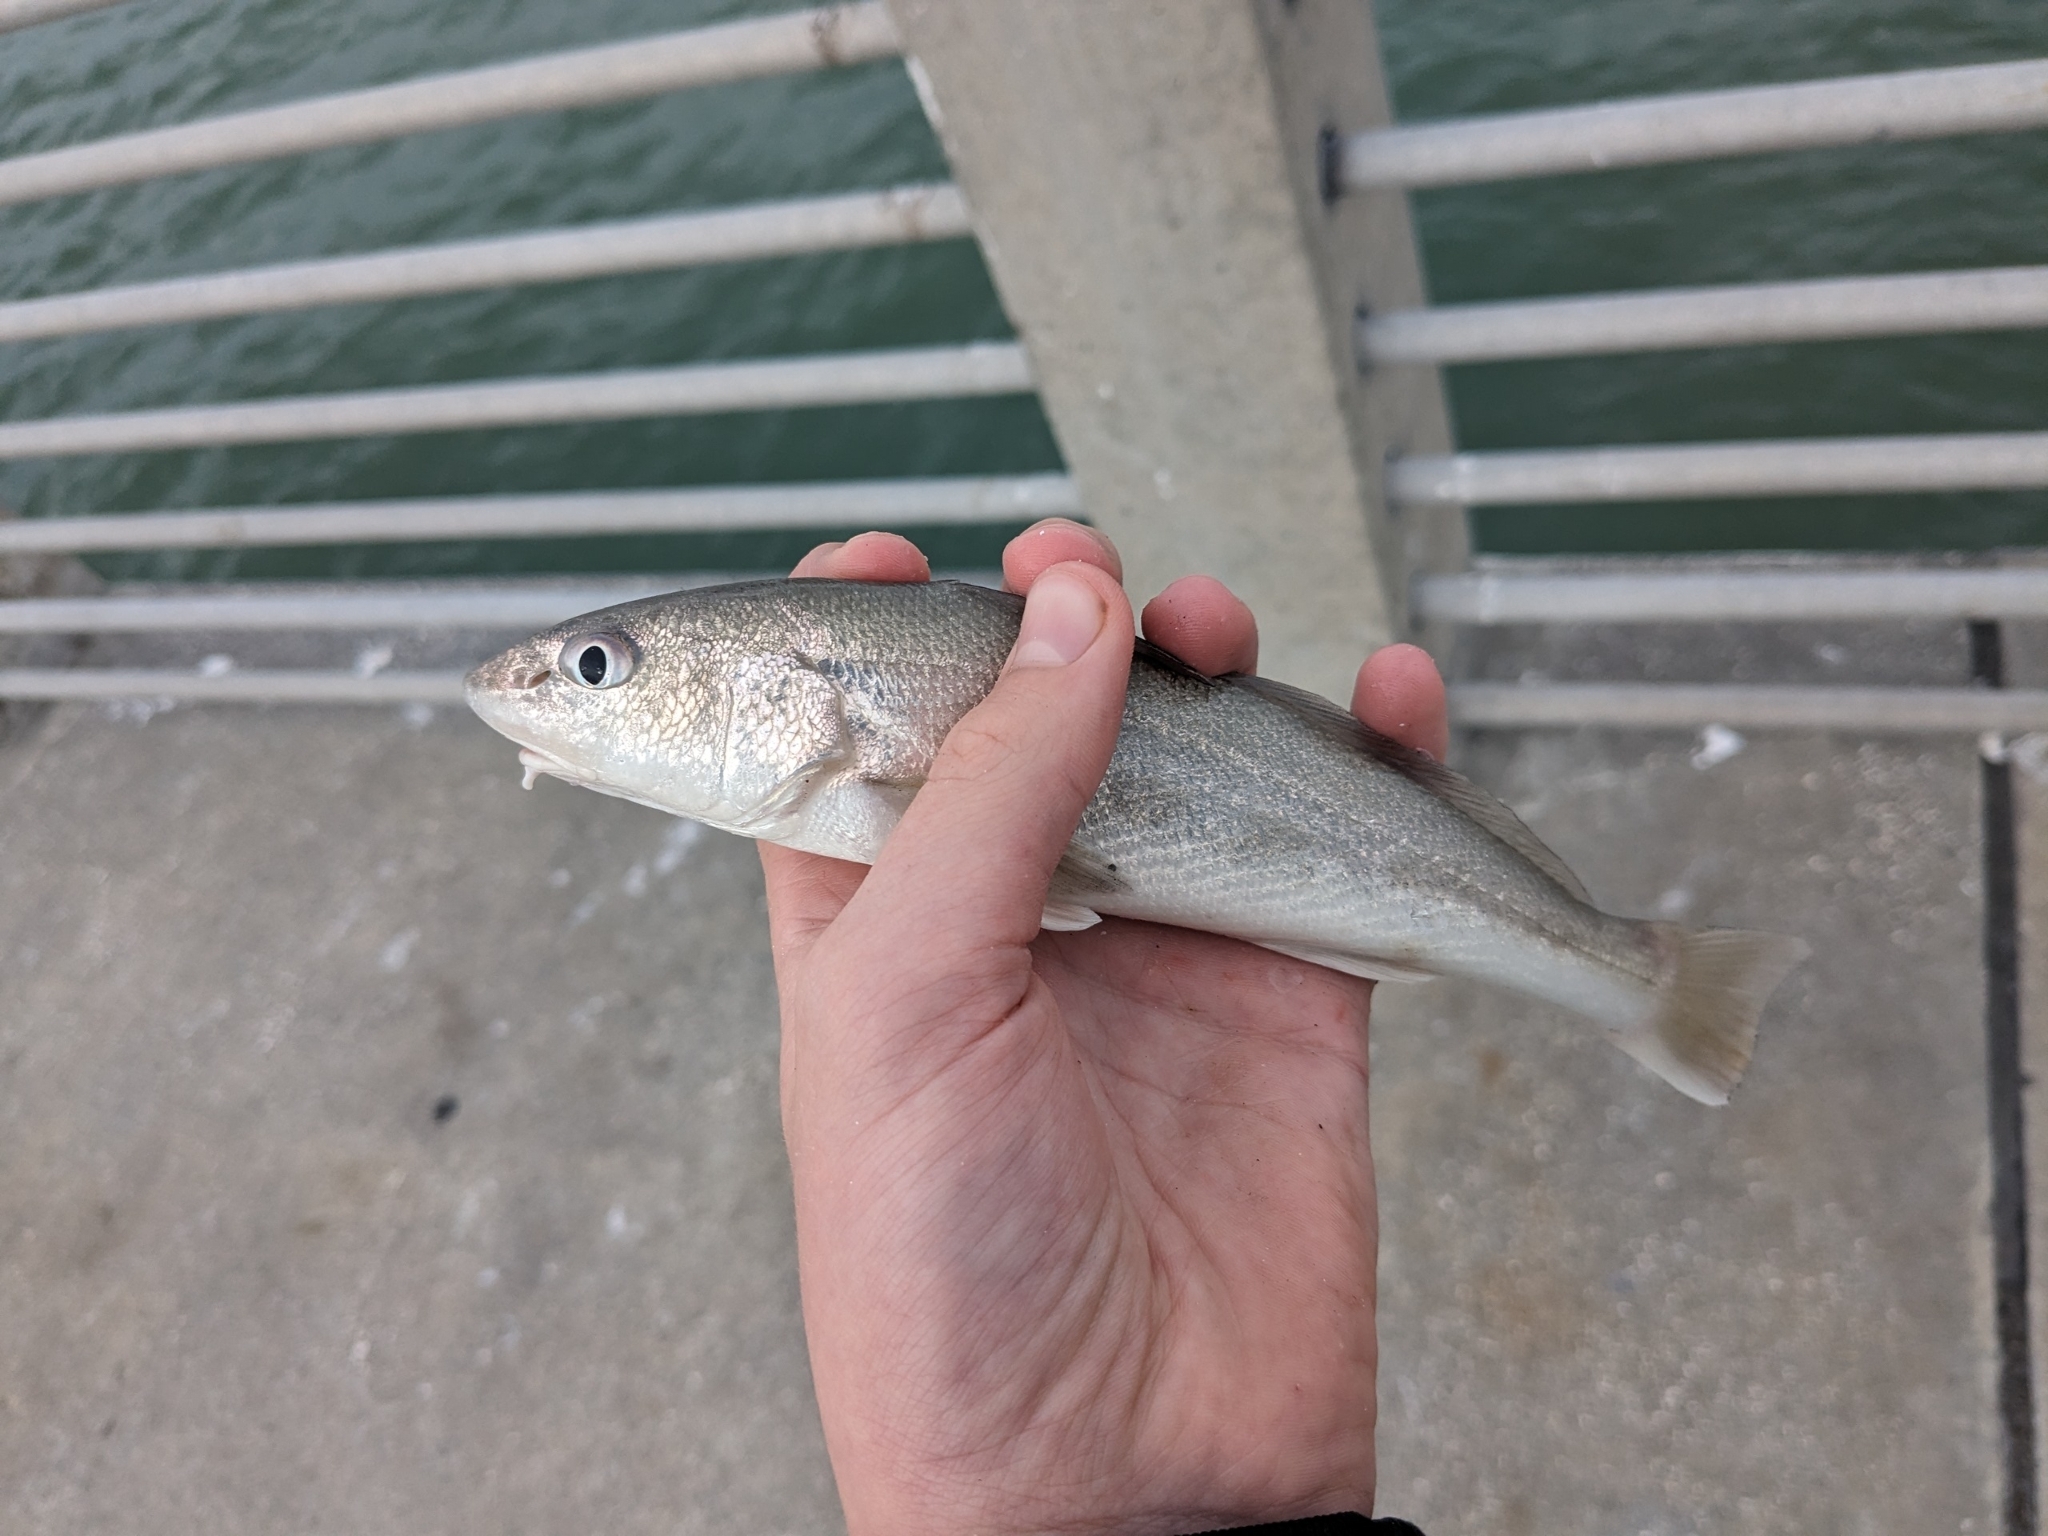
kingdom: Animalia
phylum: Chordata
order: Perciformes
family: Sciaenidae
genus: Menticirrhus
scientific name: Menticirrhus americanus
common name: Southern kingfish
